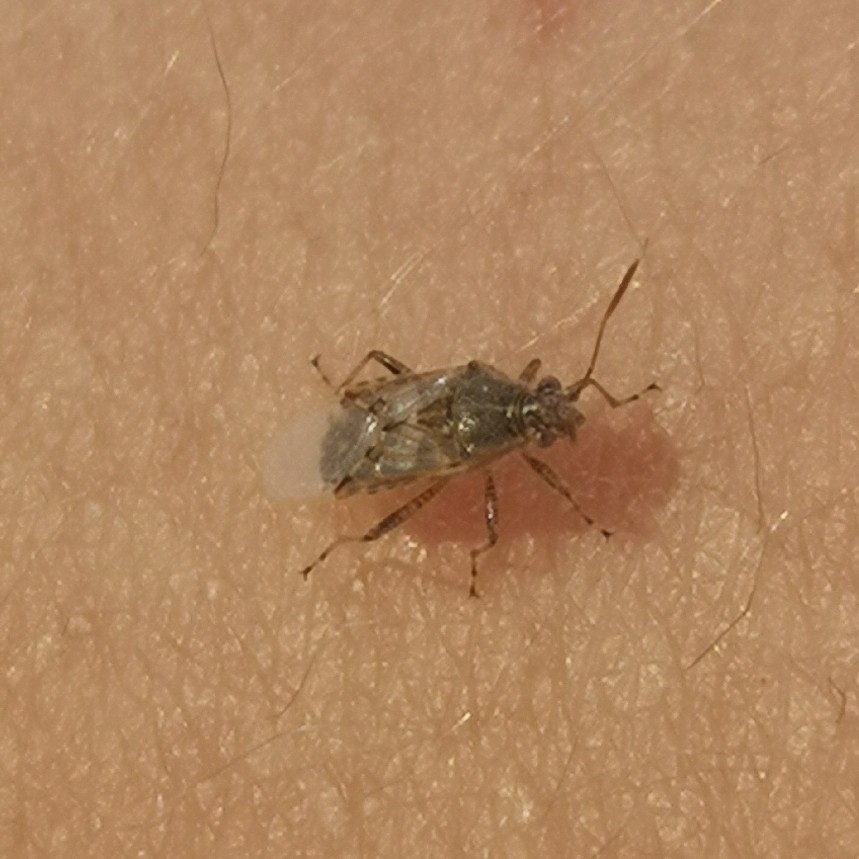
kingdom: Animalia
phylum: Arthropoda
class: Insecta
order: Hemiptera
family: Rhopalidae
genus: Liorhyssus
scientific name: Liorhyssus hyalinus
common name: Scentless plant bug
